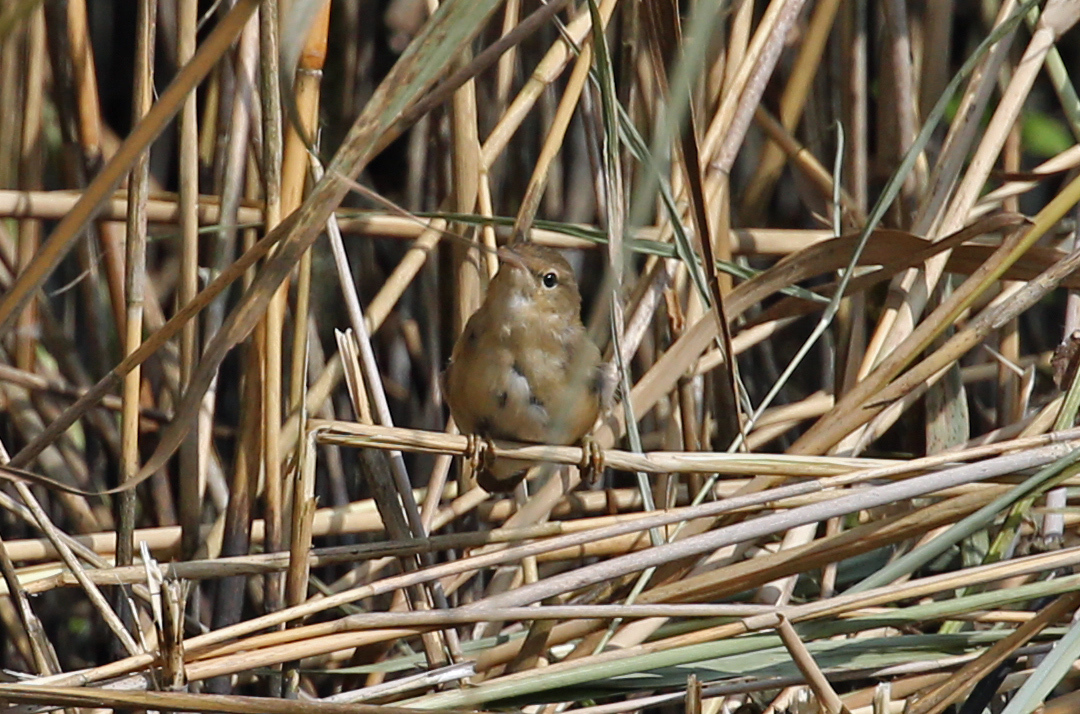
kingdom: Animalia
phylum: Chordata
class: Aves
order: Passeriformes
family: Acrocephalidae
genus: Acrocephalus
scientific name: Acrocephalus scirpaceus
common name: Eurasian reed warbler
